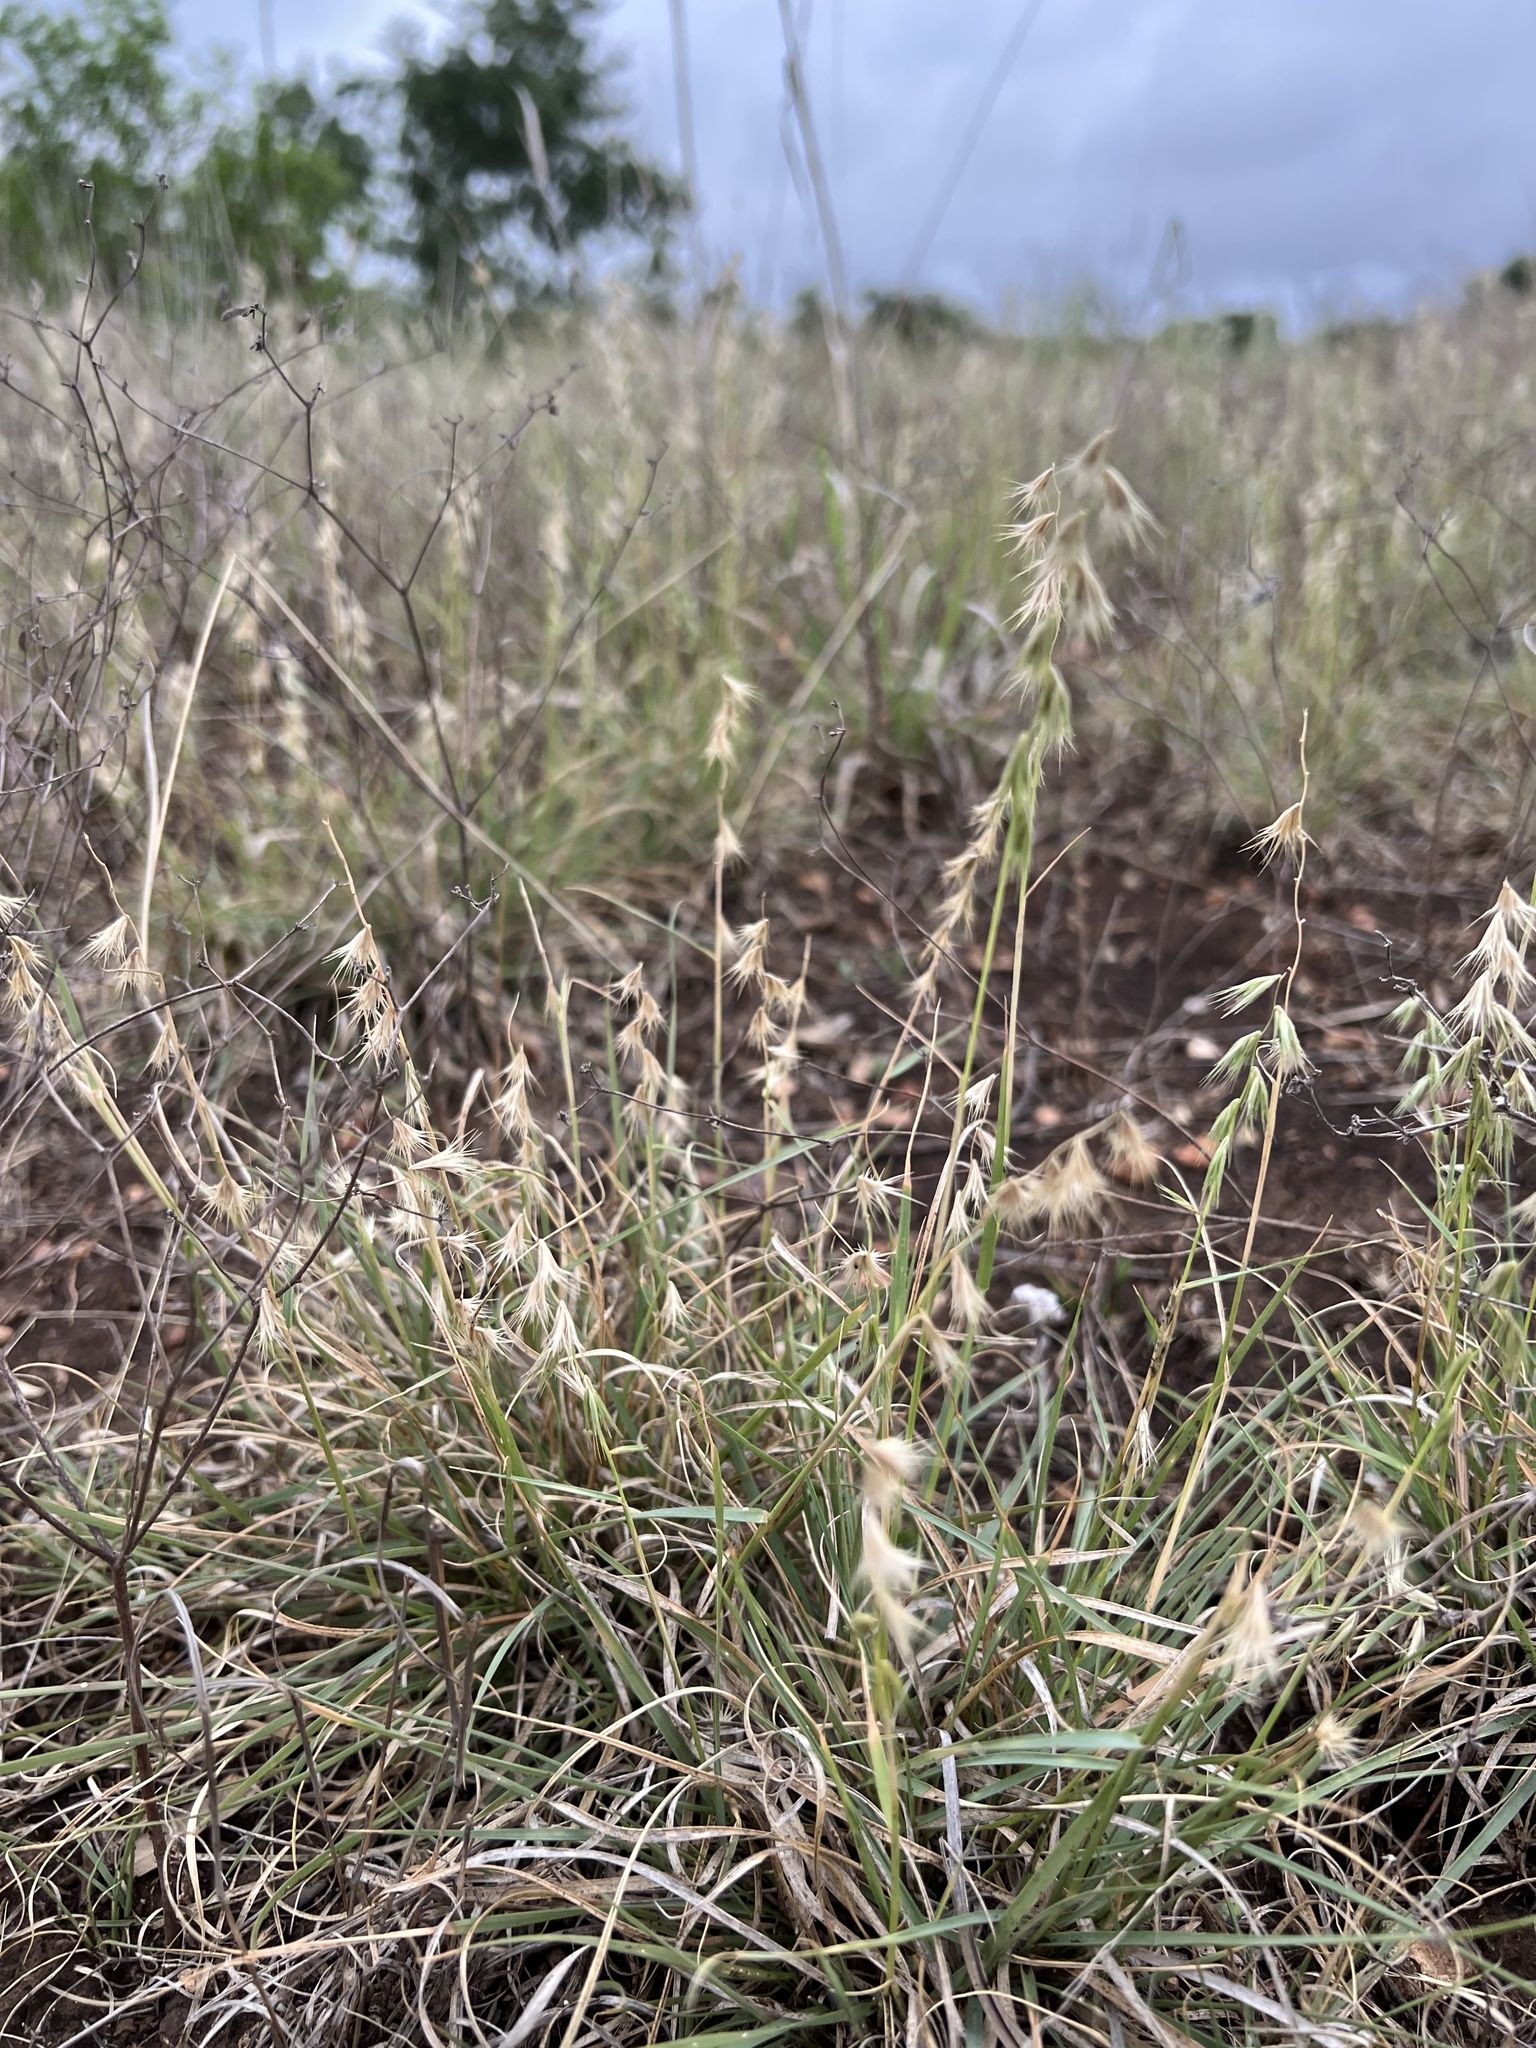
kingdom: Plantae
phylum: Tracheophyta
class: Liliopsida
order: Poales
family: Poaceae
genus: Bouteloua
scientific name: Bouteloua rigidiseta
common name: Texas grama
